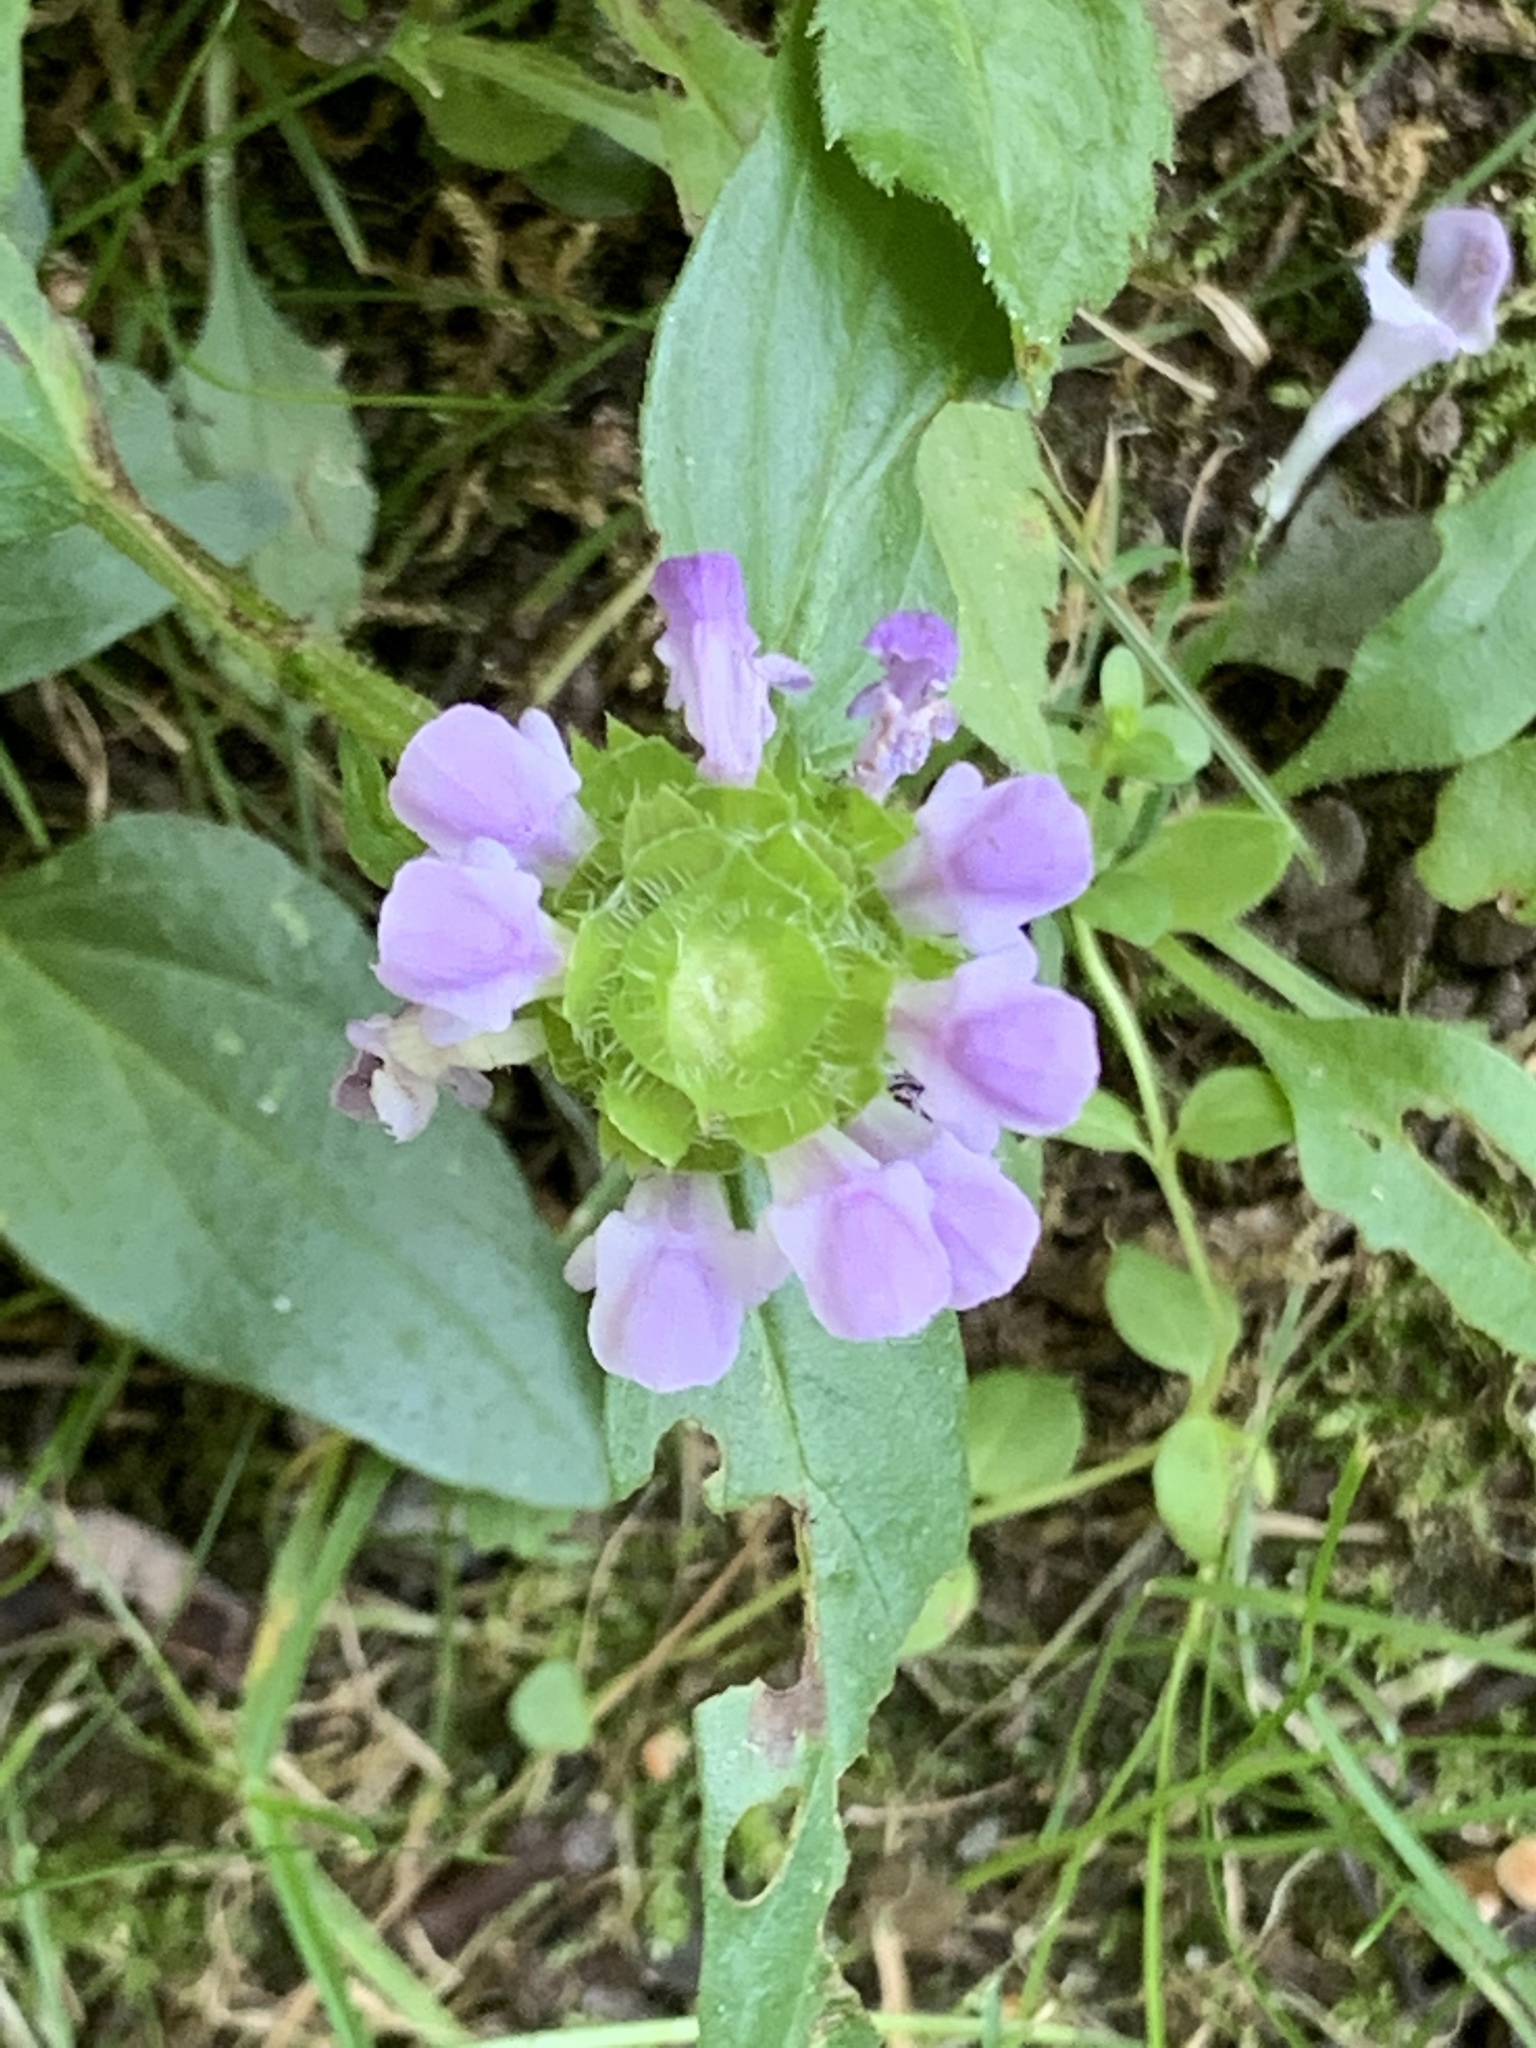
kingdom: Plantae
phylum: Tracheophyta
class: Magnoliopsida
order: Lamiales
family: Lamiaceae
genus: Prunella
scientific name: Prunella vulgaris
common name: Heal-all
